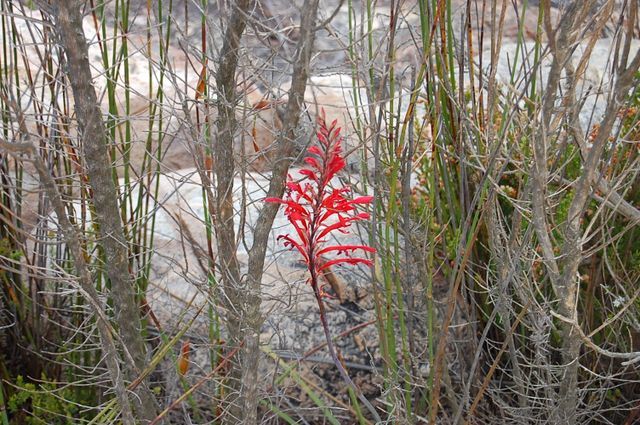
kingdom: Plantae
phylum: Tracheophyta
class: Liliopsida
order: Asparagales
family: Iridaceae
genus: Tritoniopsis
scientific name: Tritoniopsis caffra
